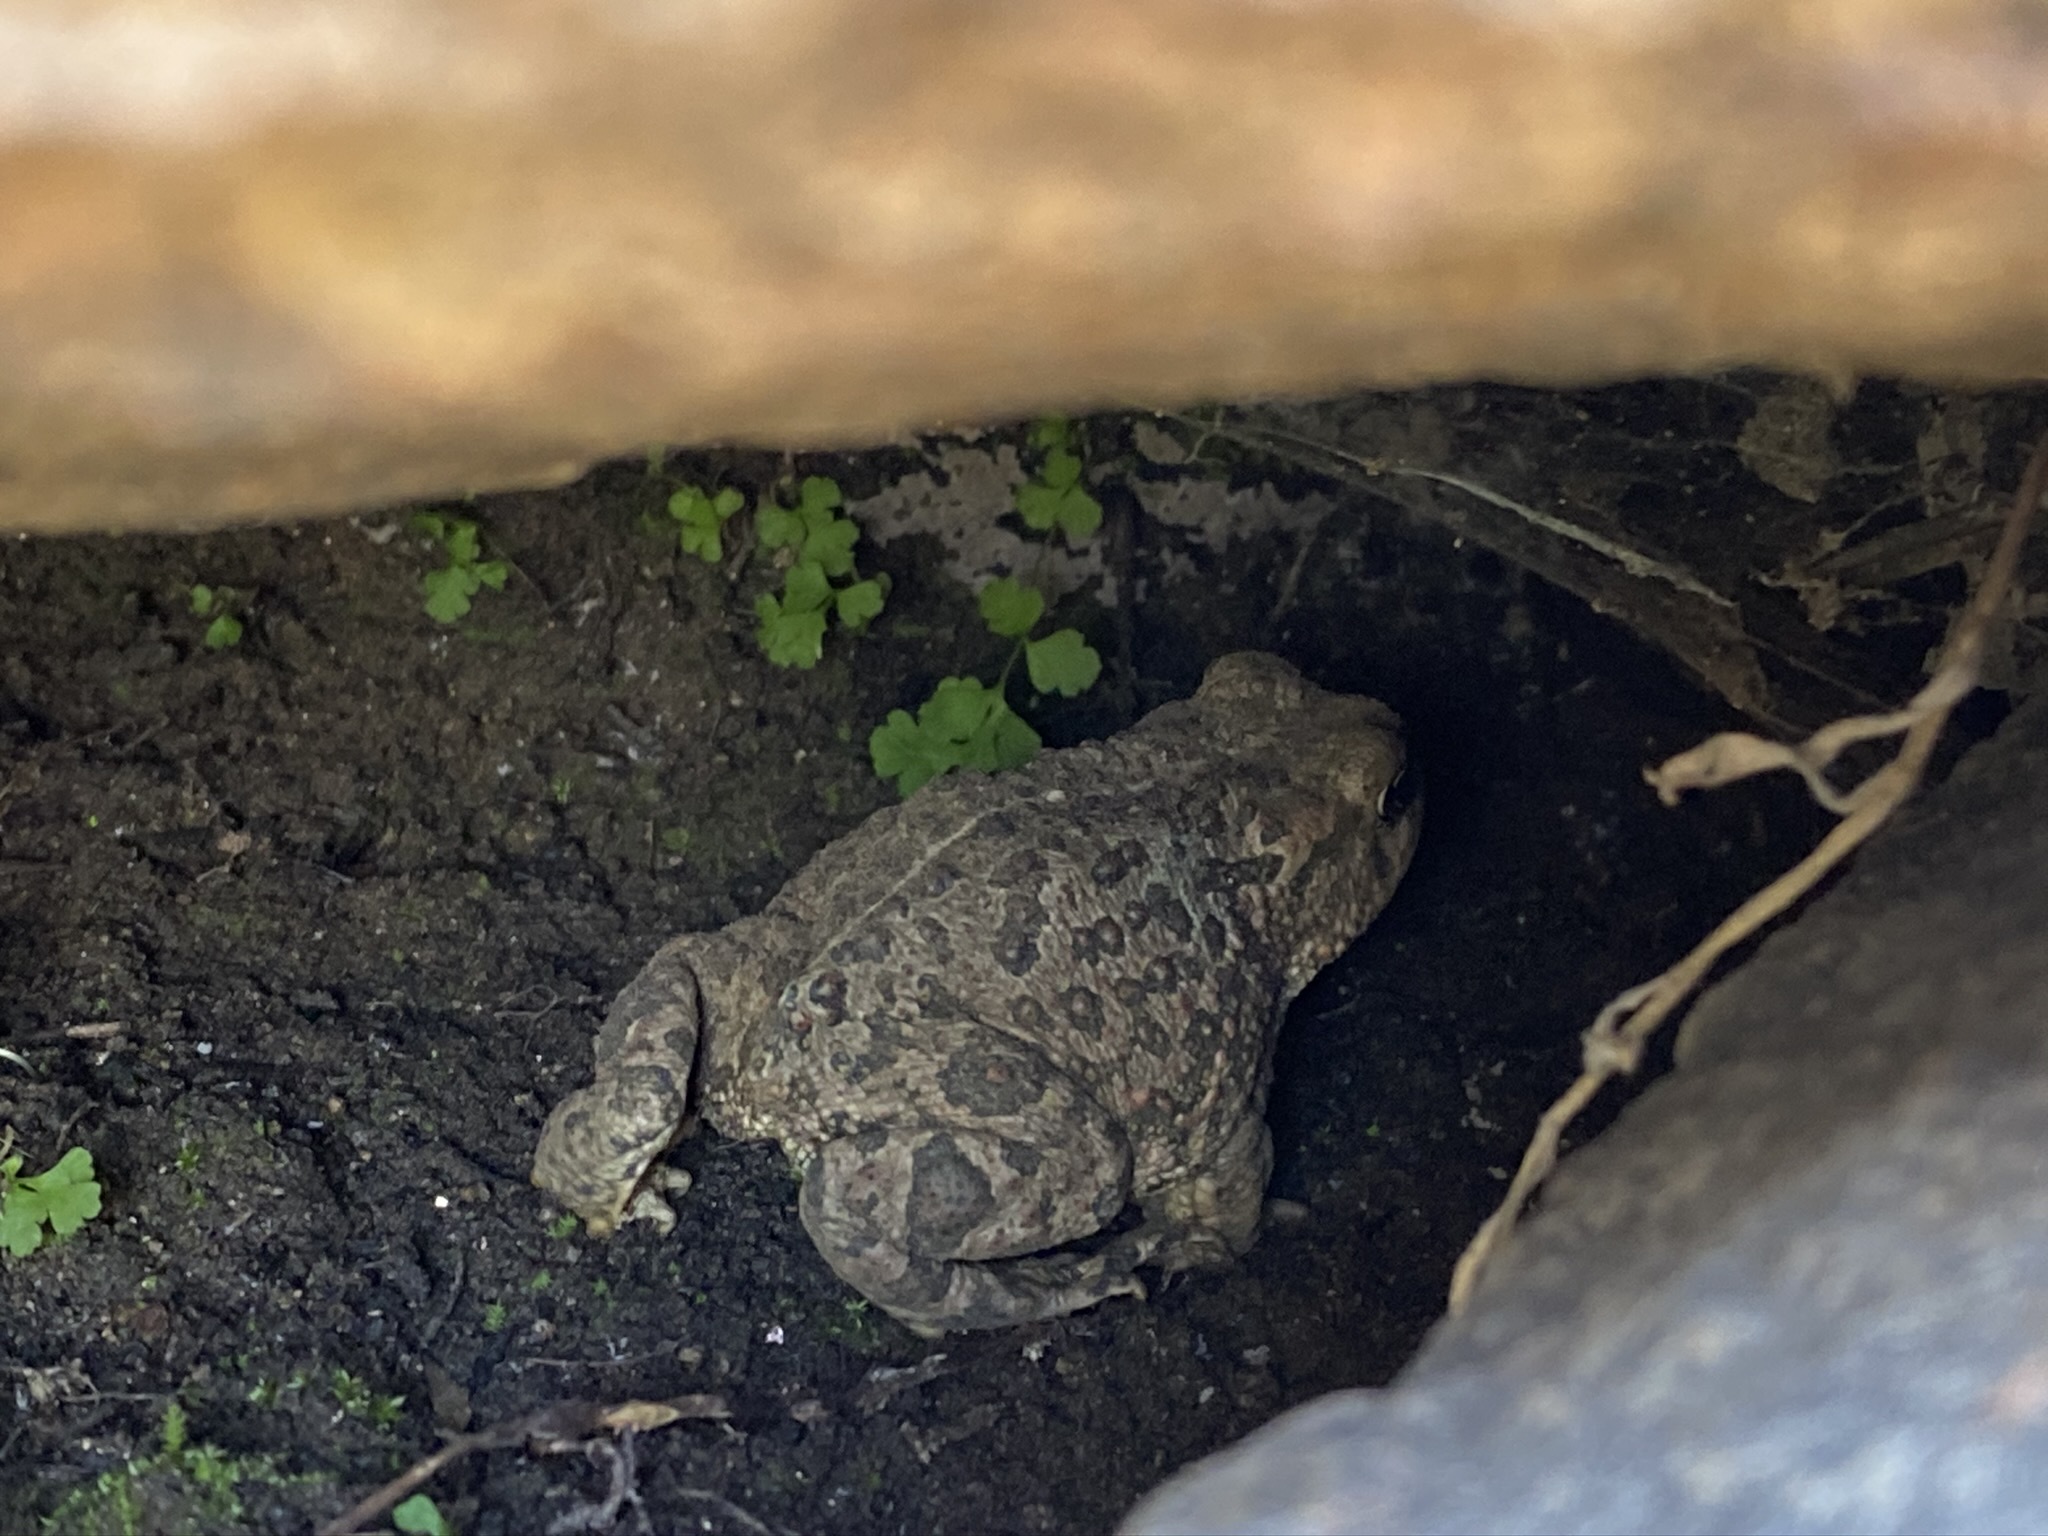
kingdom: Animalia
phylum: Chordata
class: Amphibia
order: Anura
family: Bufonidae
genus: Anaxyrus
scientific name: Anaxyrus boreas
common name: Western toad
